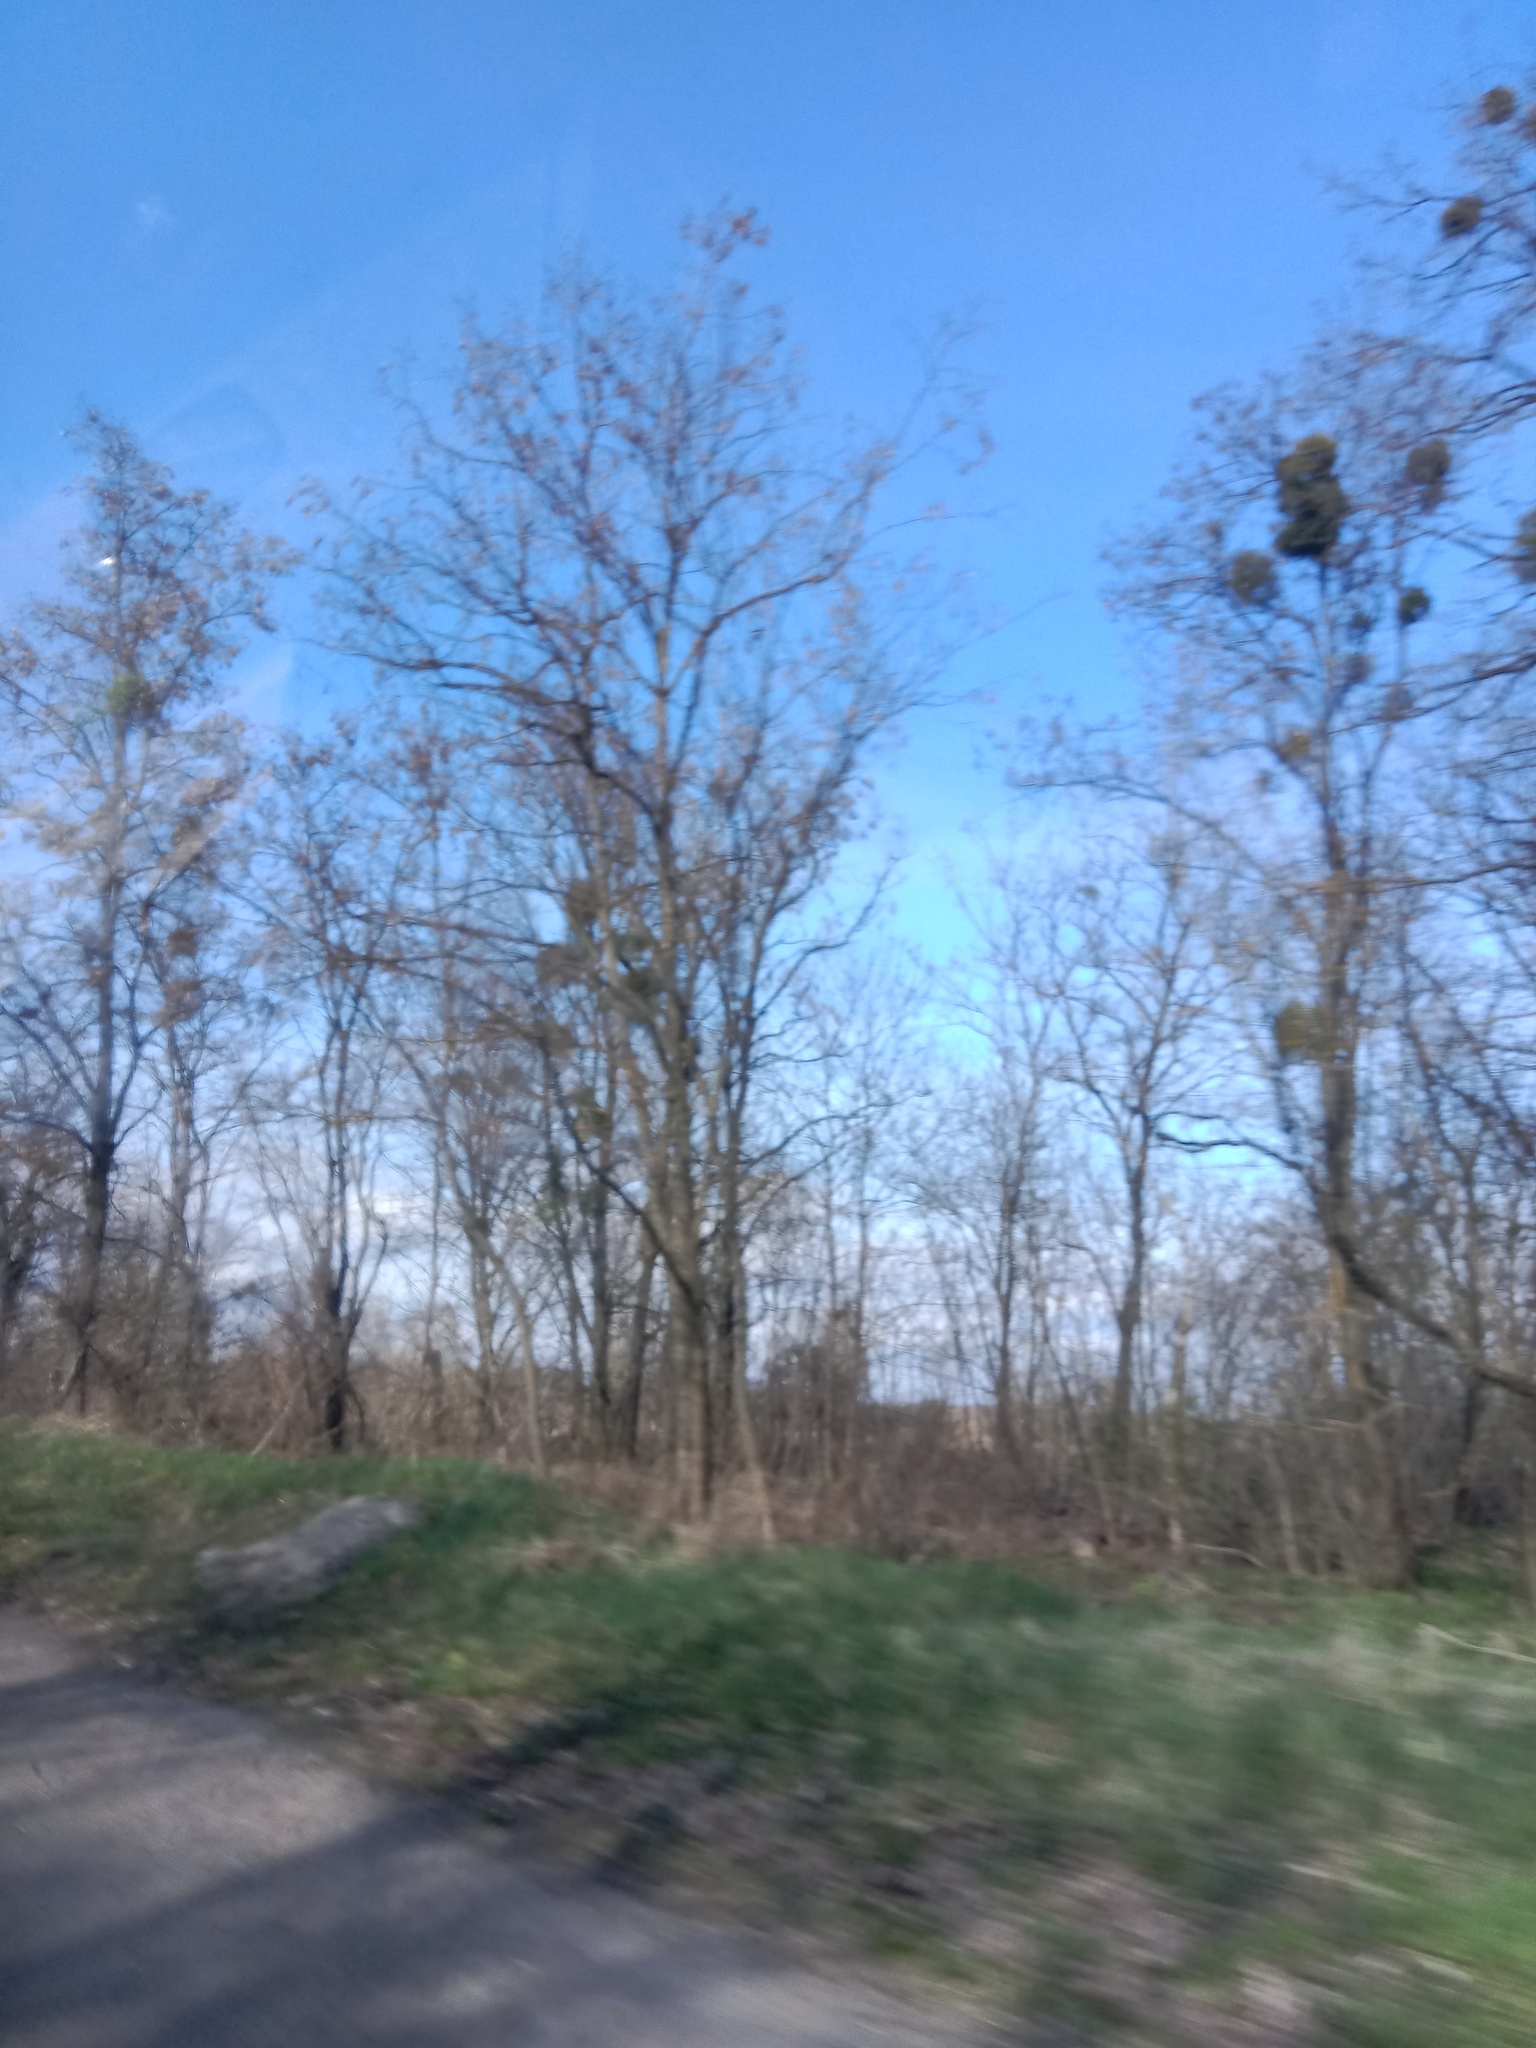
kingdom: Plantae
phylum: Tracheophyta
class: Magnoliopsida
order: Santalales
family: Viscaceae
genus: Viscum
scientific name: Viscum album
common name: Mistletoe
